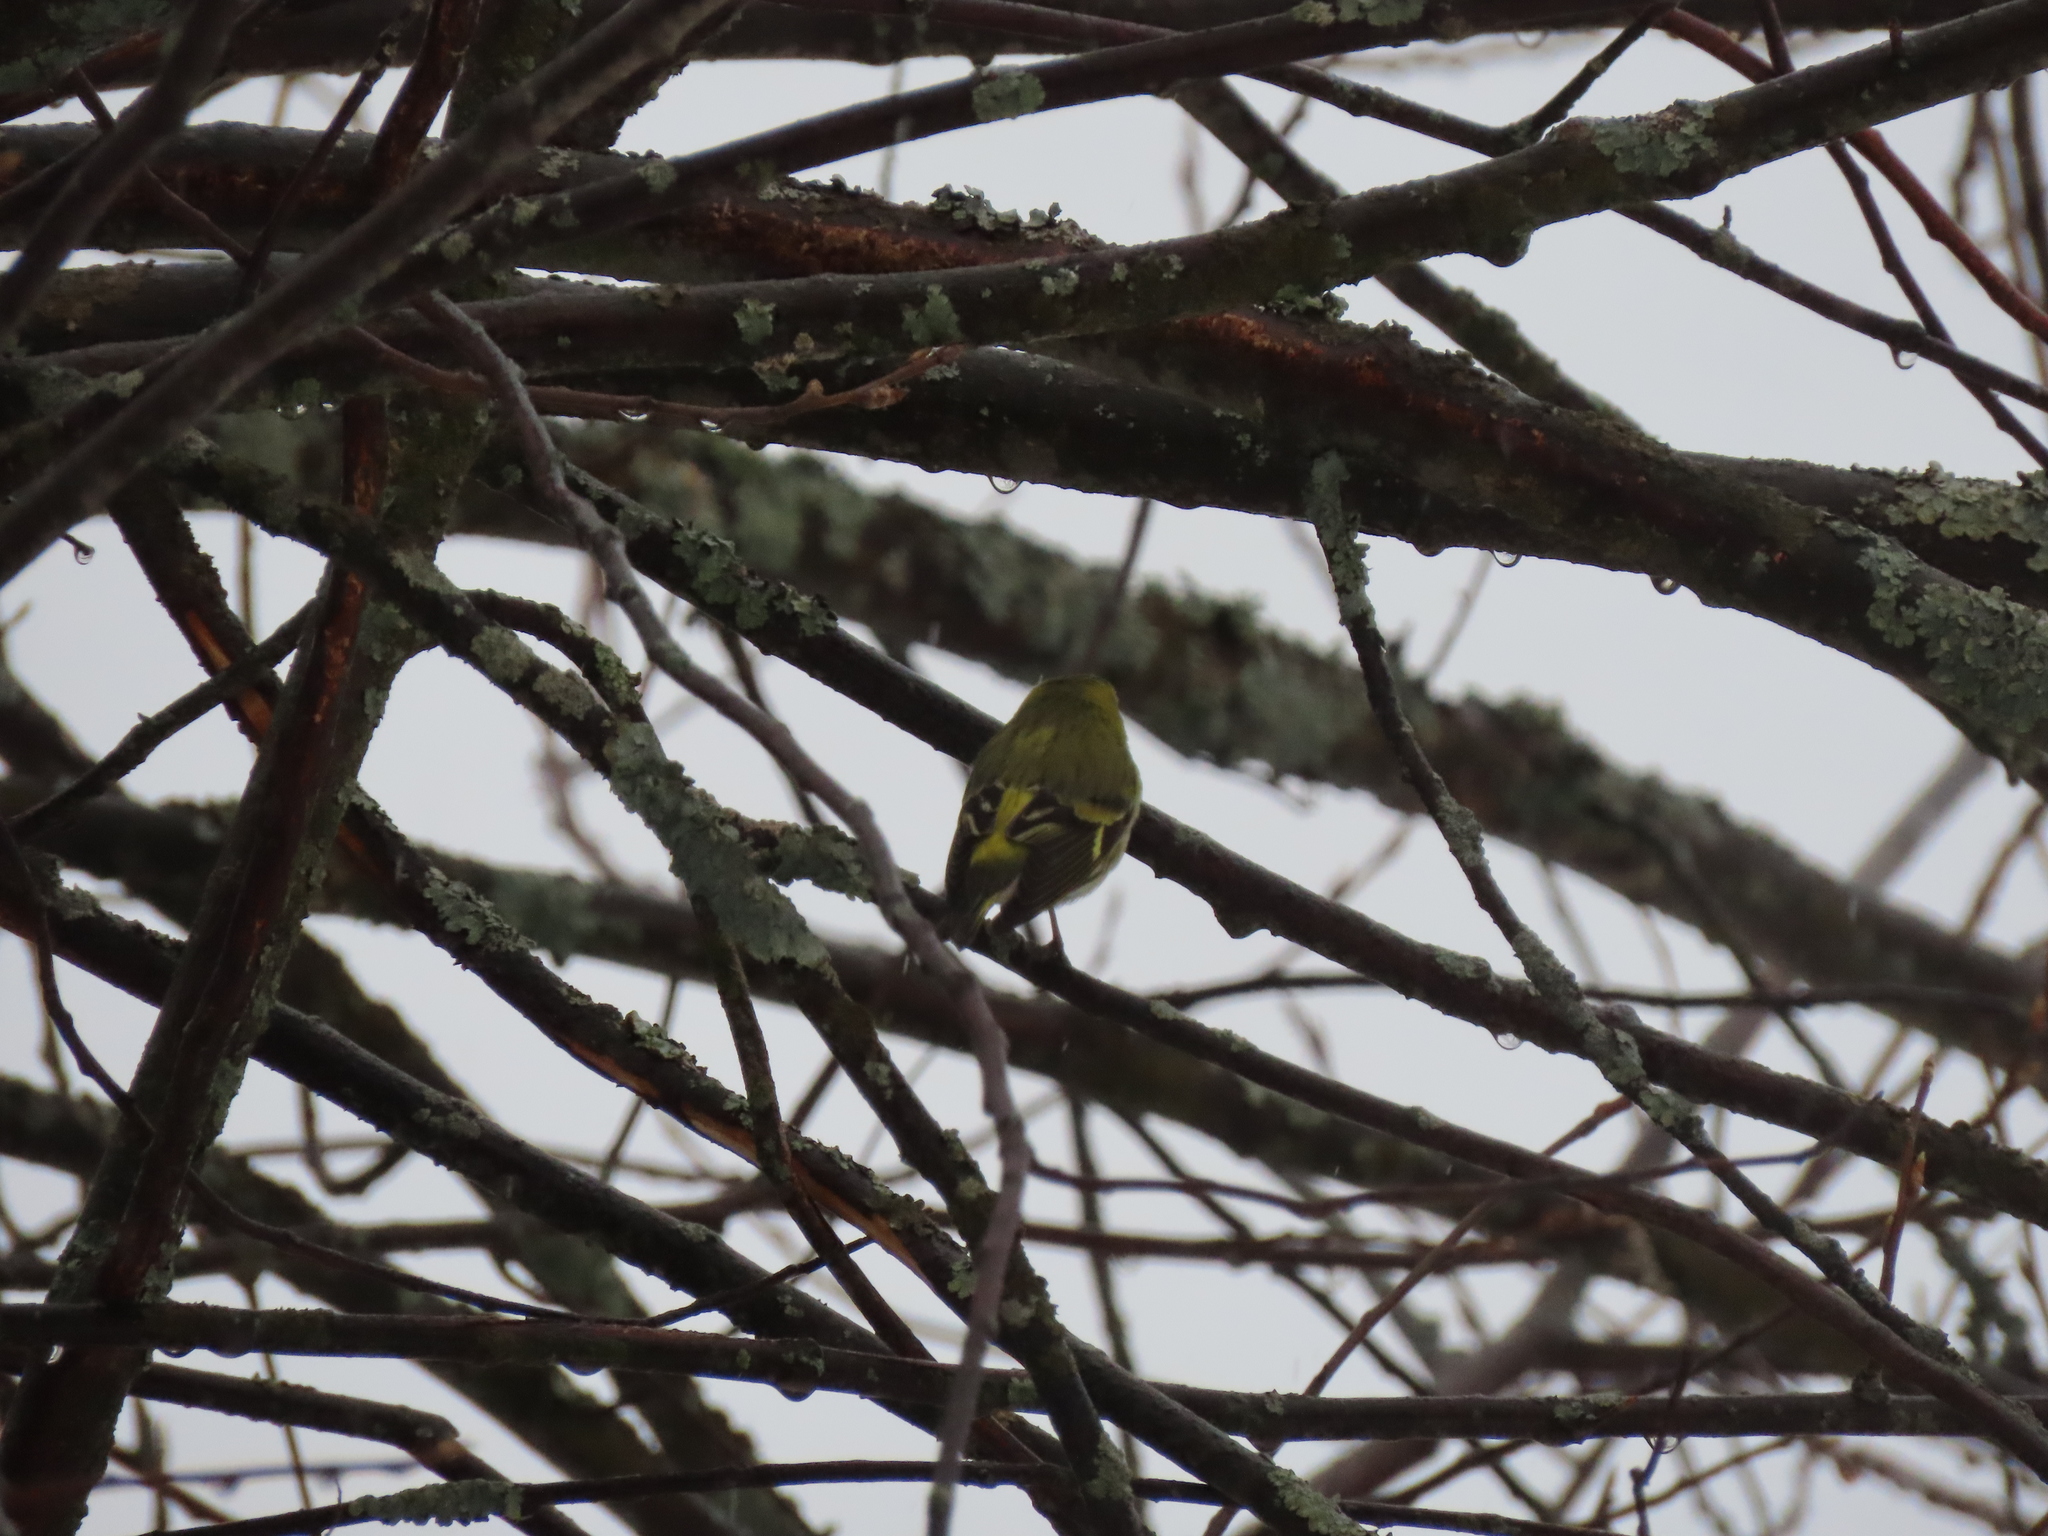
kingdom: Animalia
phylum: Chordata
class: Aves
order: Passeriformes
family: Fringillidae
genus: Spinus
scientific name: Spinus spinus
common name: Eurasian siskin
